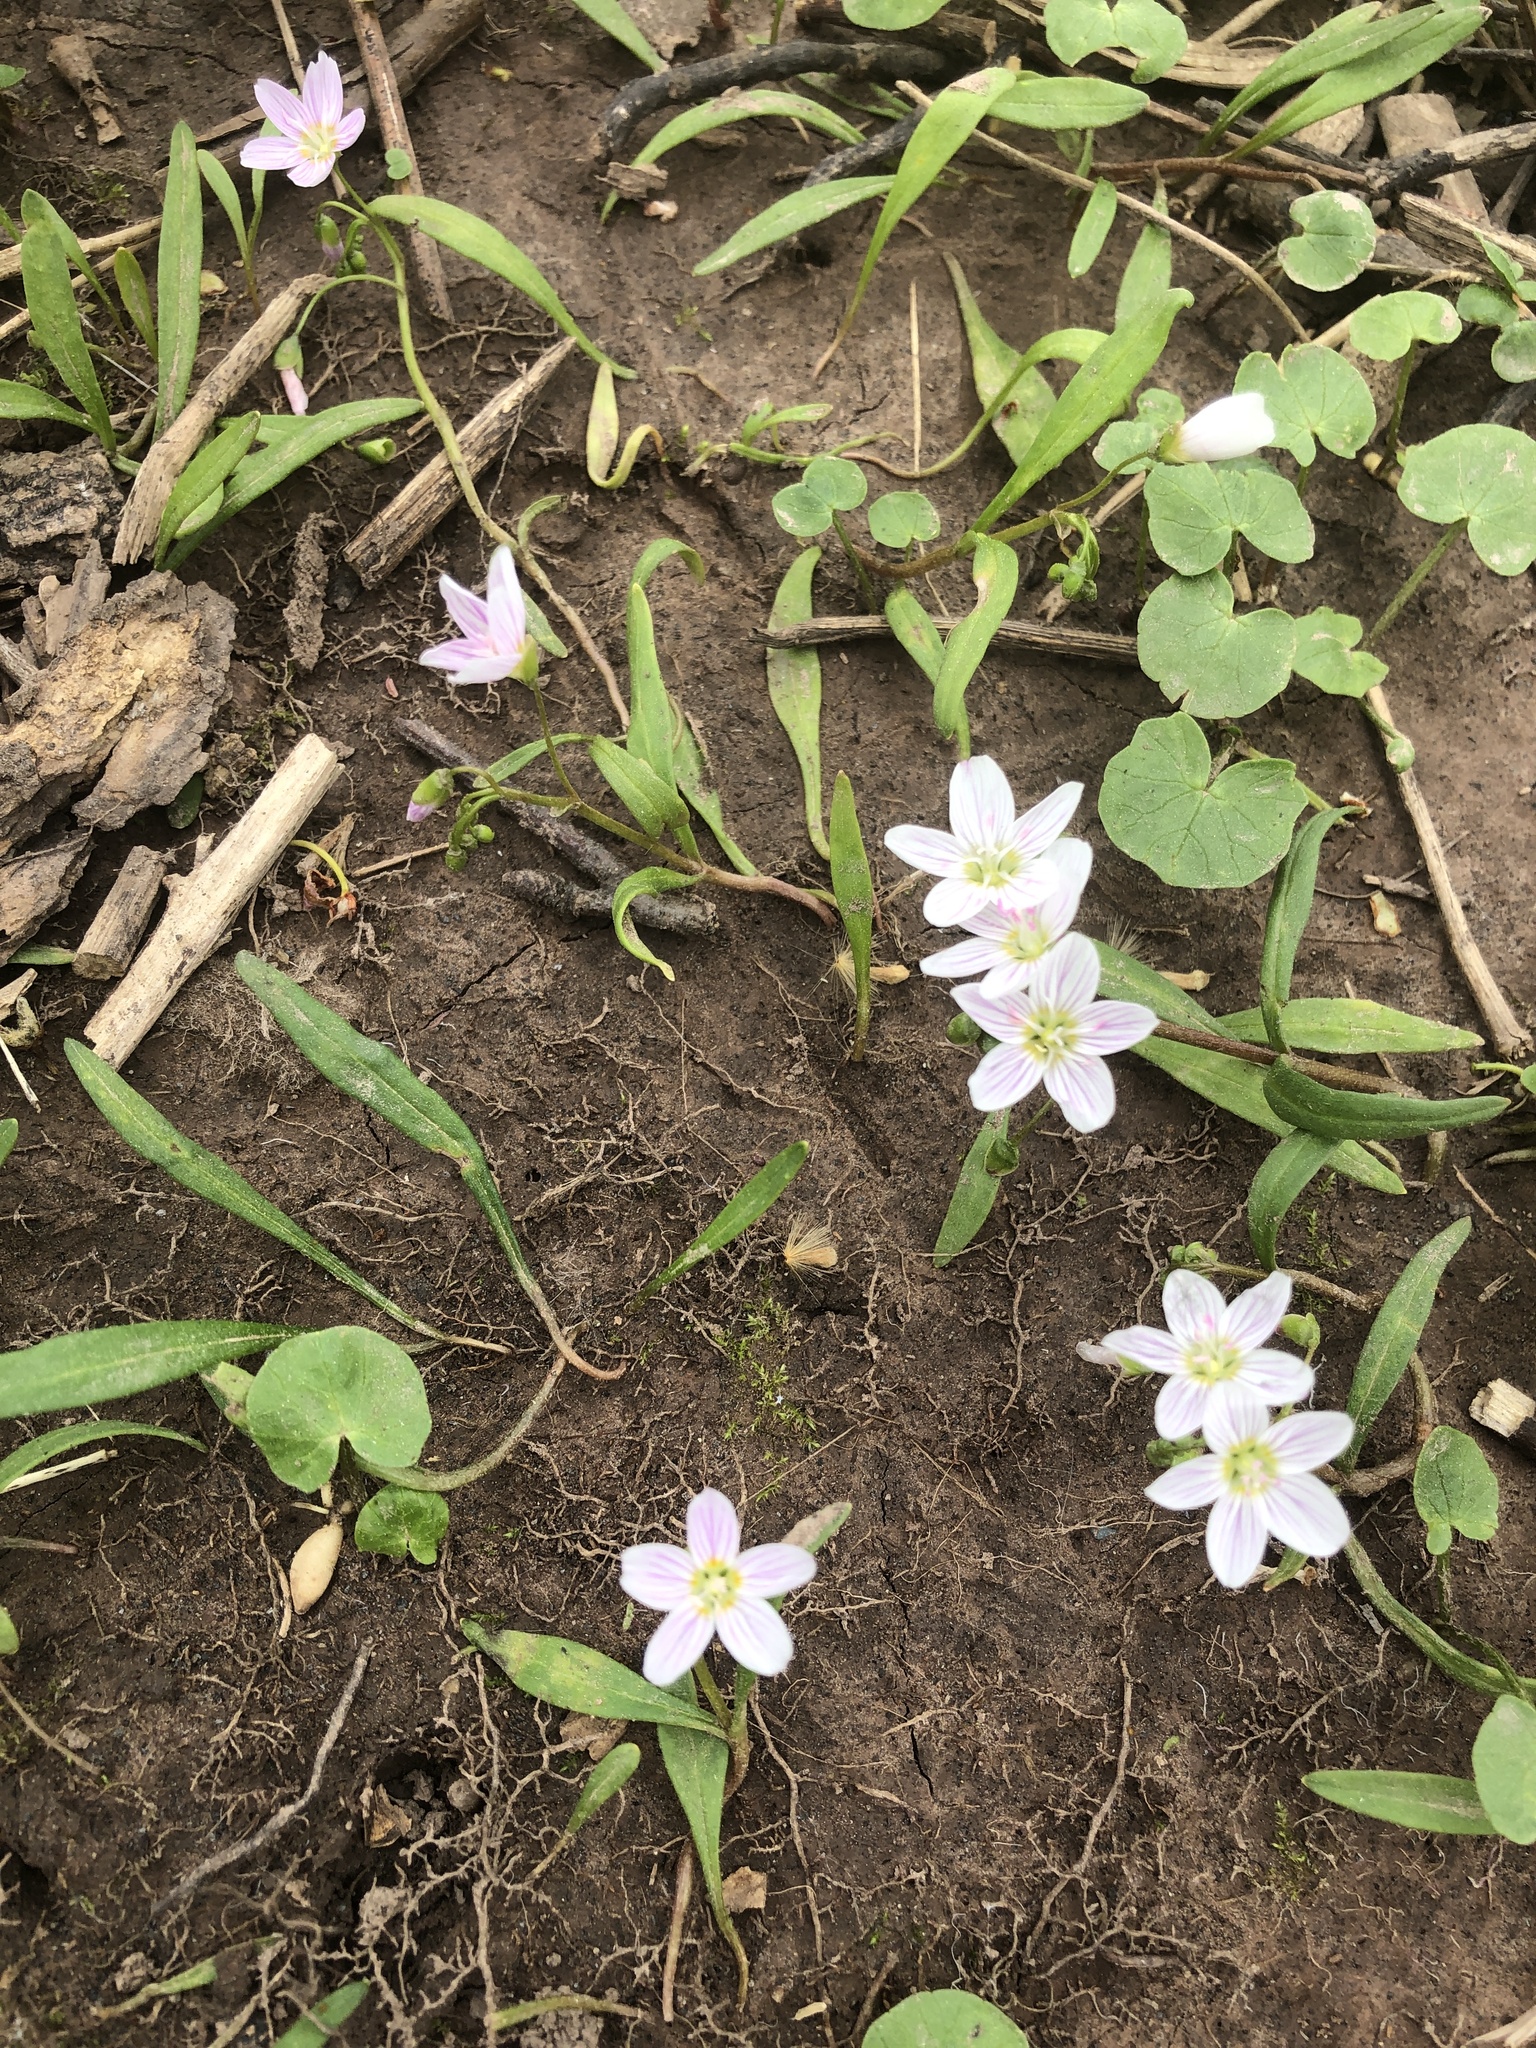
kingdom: Plantae
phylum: Tracheophyta
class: Magnoliopsida
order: Caryophyllales
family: Montiaceae
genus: Claytonia
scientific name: Claytonia virginica
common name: Virginia springbeauty
